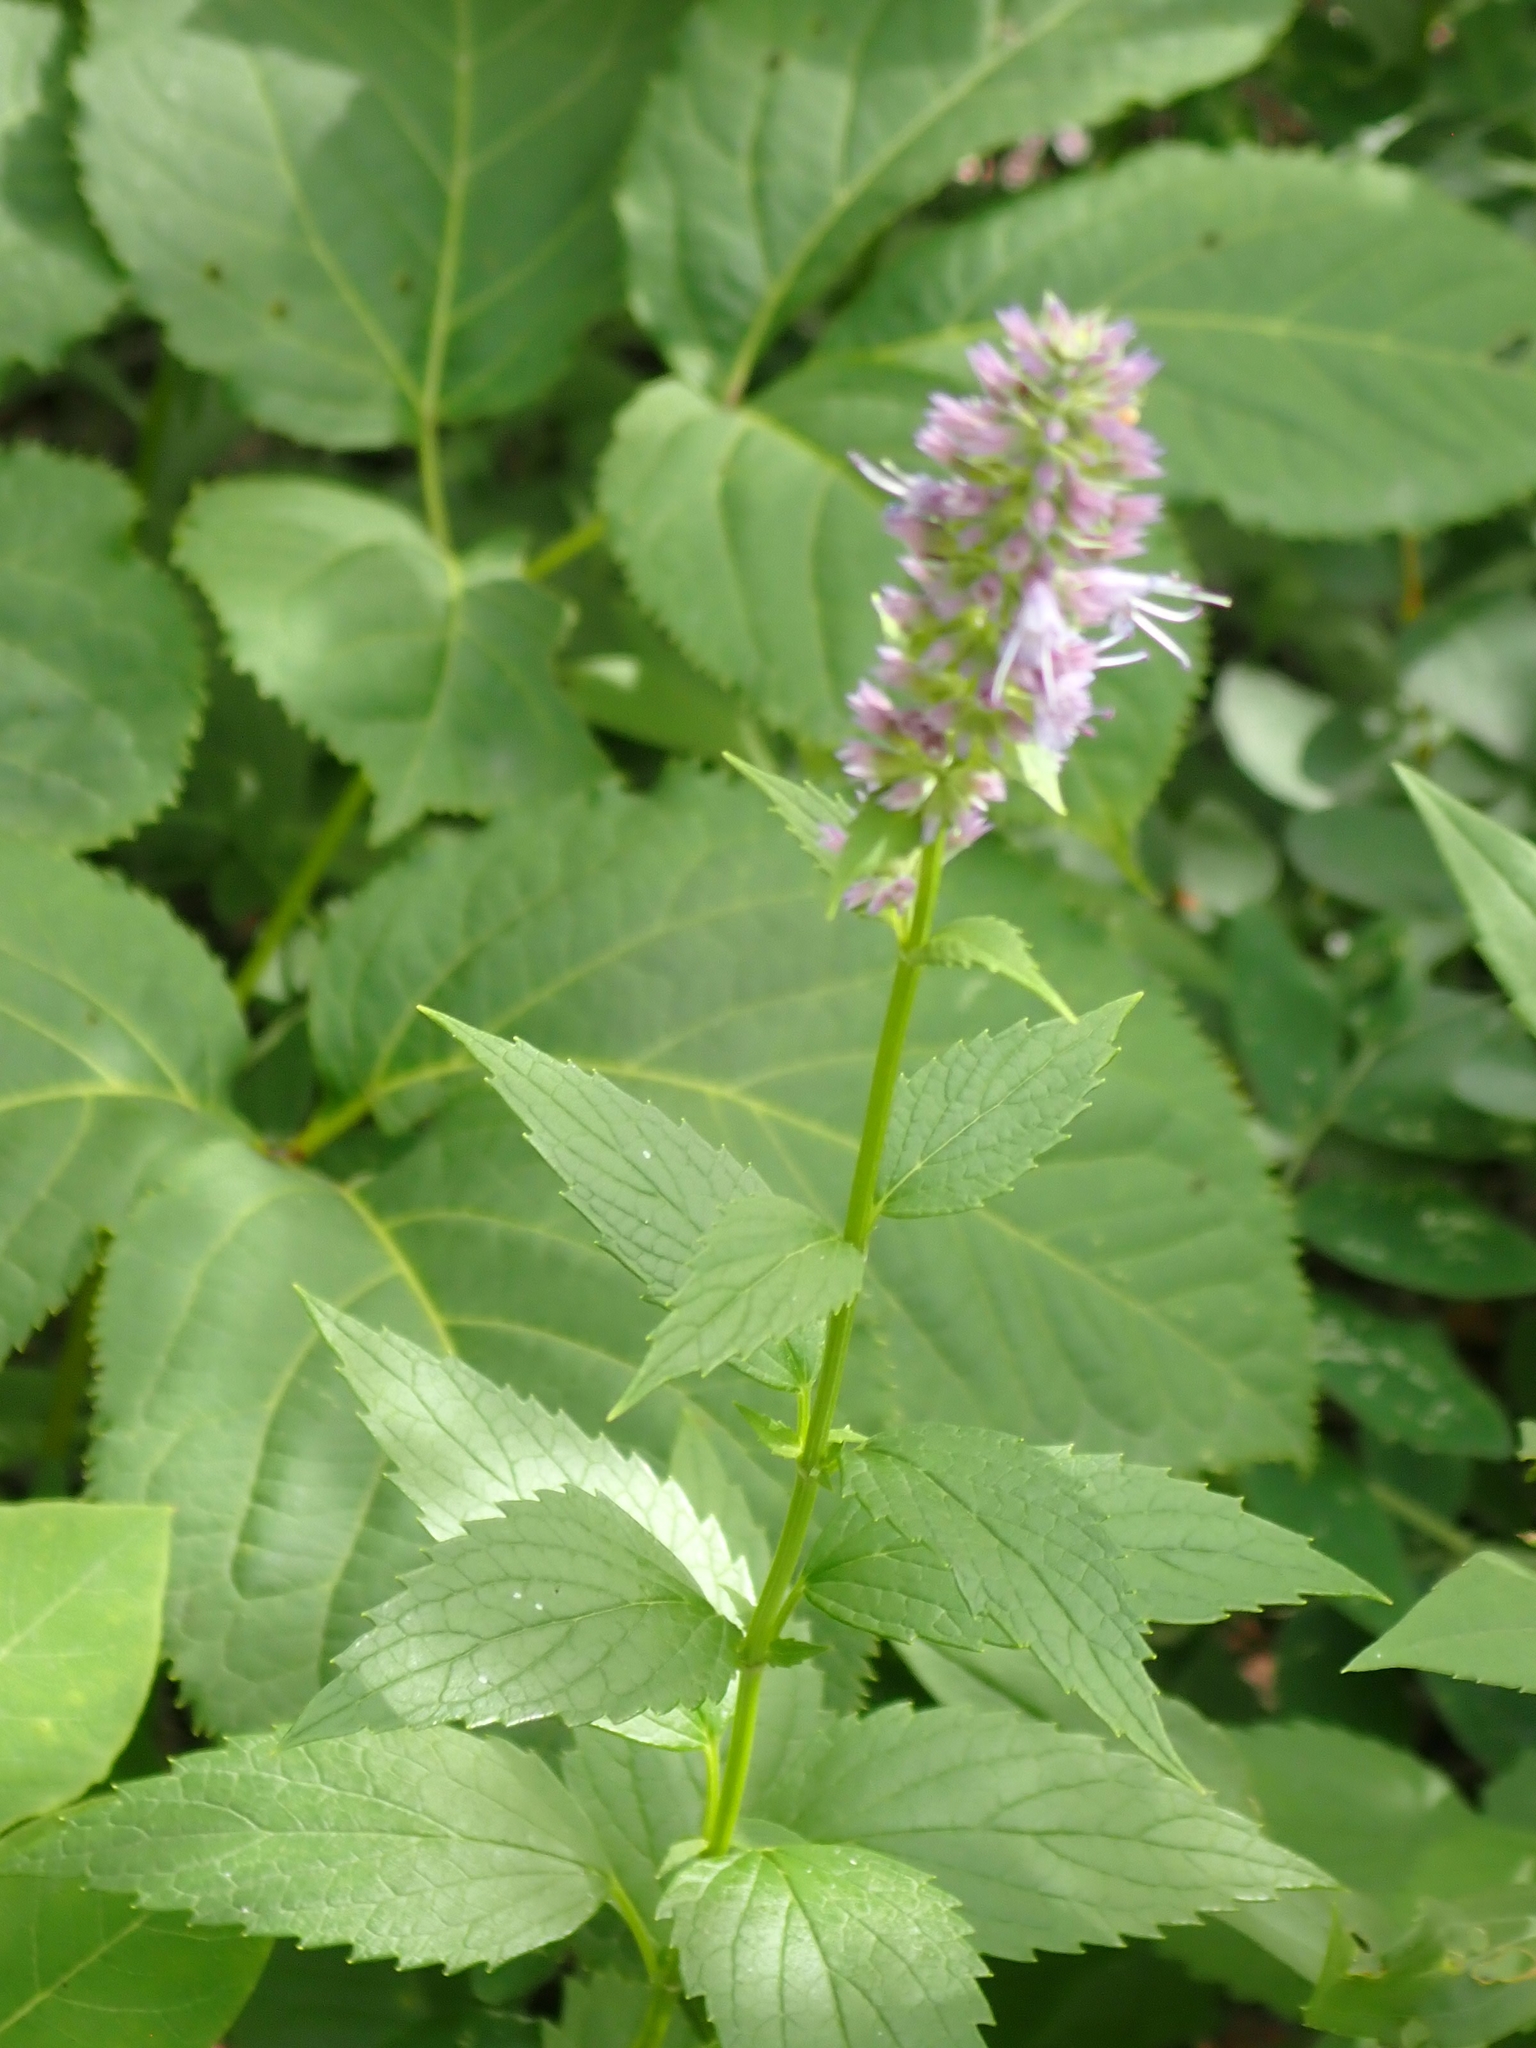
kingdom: Plantae
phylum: Tracheophyta
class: Magnoliopsida
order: Lamiales
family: Lamiaceae
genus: Agastache
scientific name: Agastache foeniculum
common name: Anise hyssop
